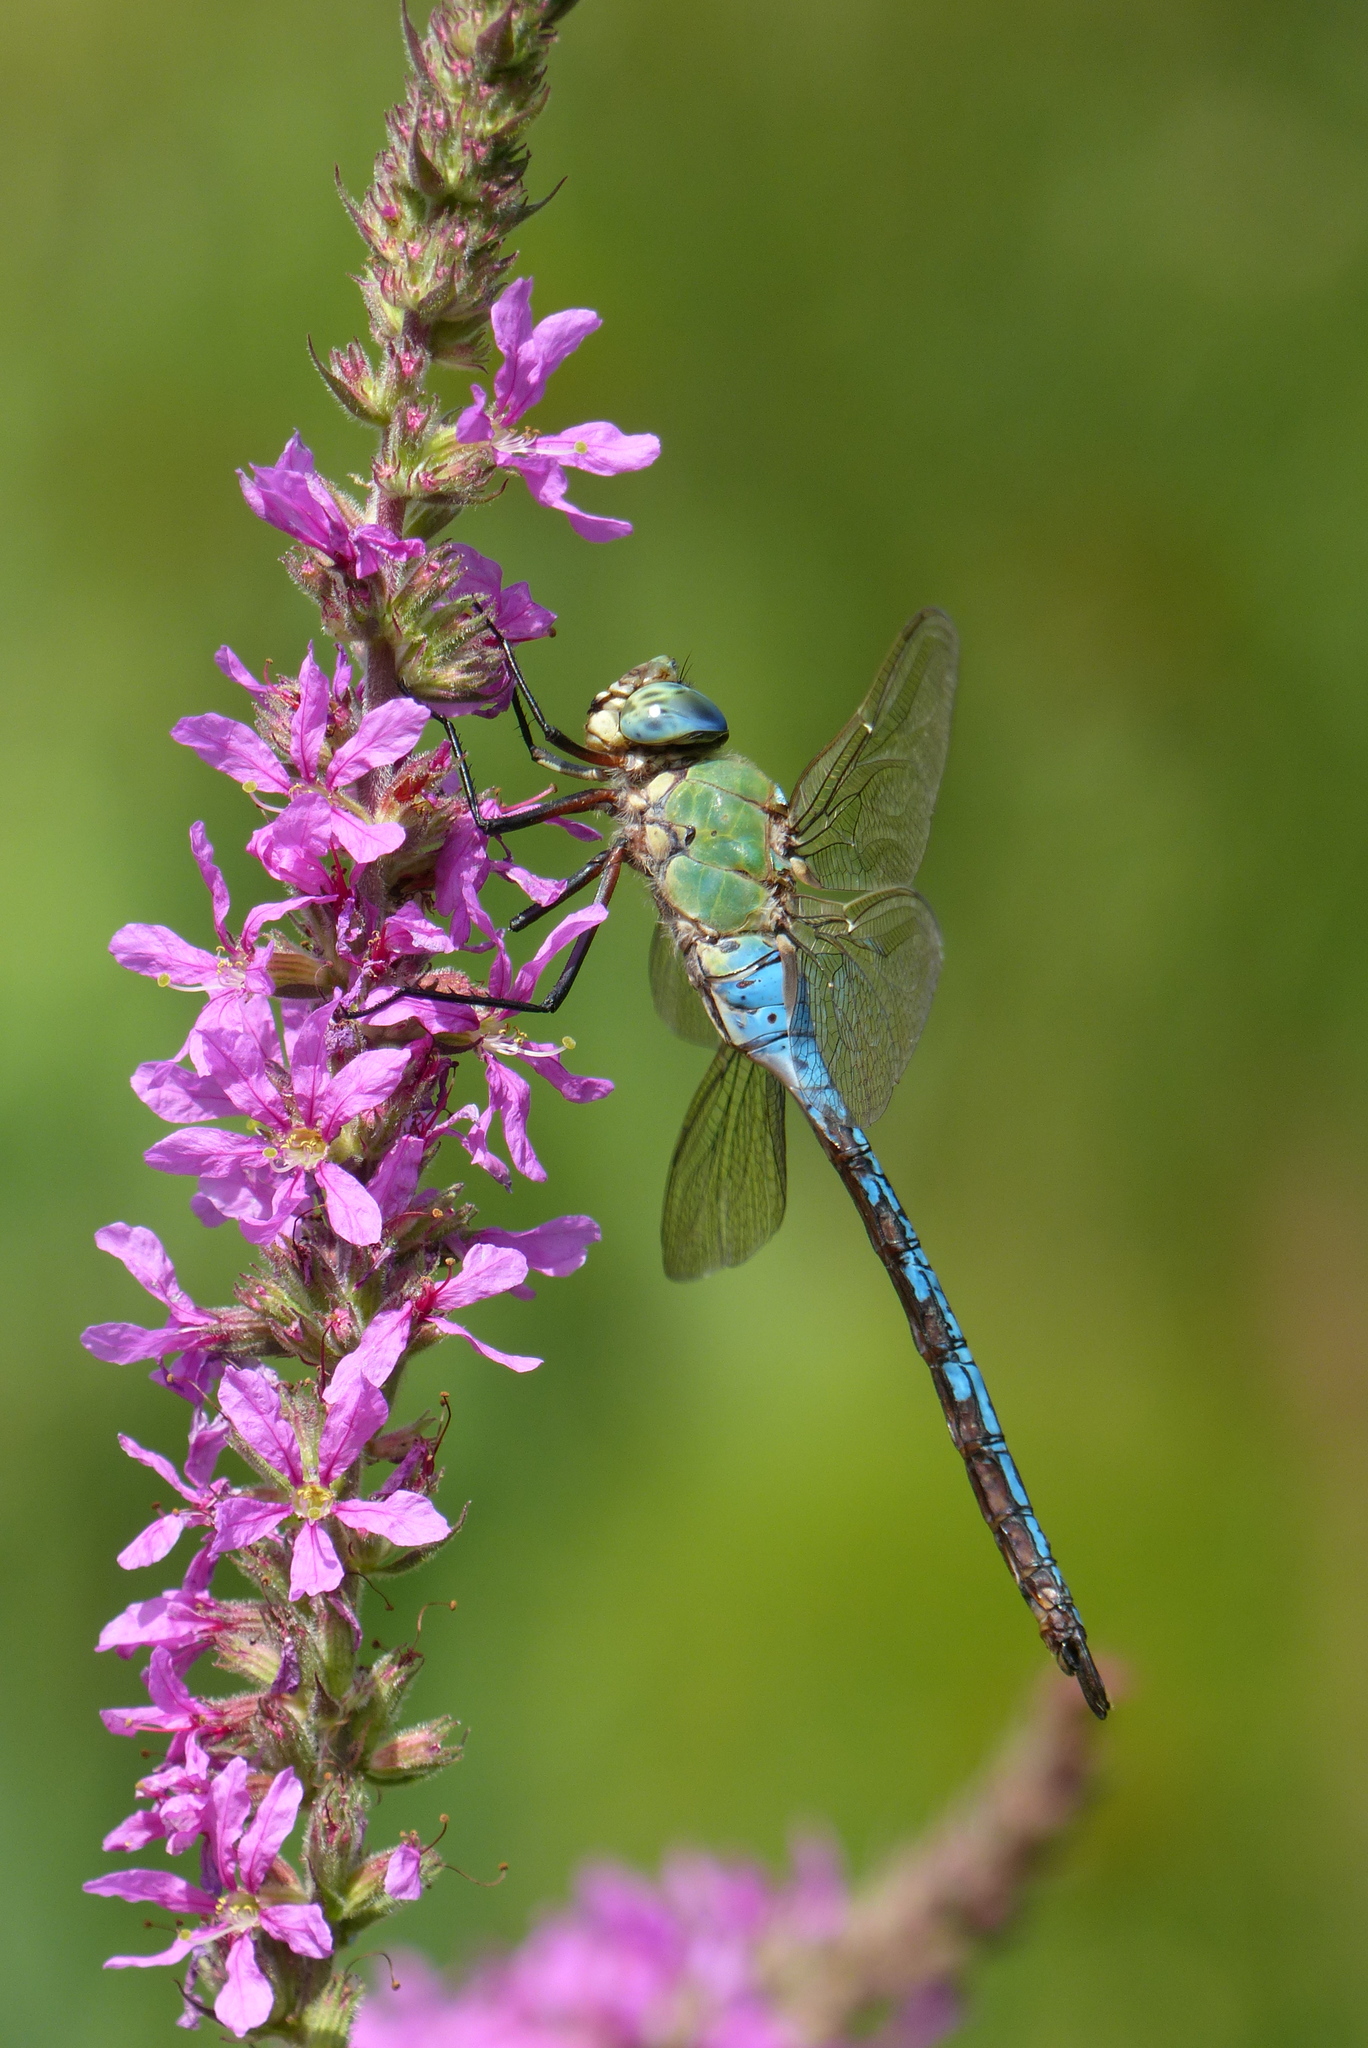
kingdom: Animalia
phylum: Arthropoda
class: Insecta
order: Odonata
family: Aeshnidae
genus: Anax
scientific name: Anax imperator
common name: Emperor dragonfly
